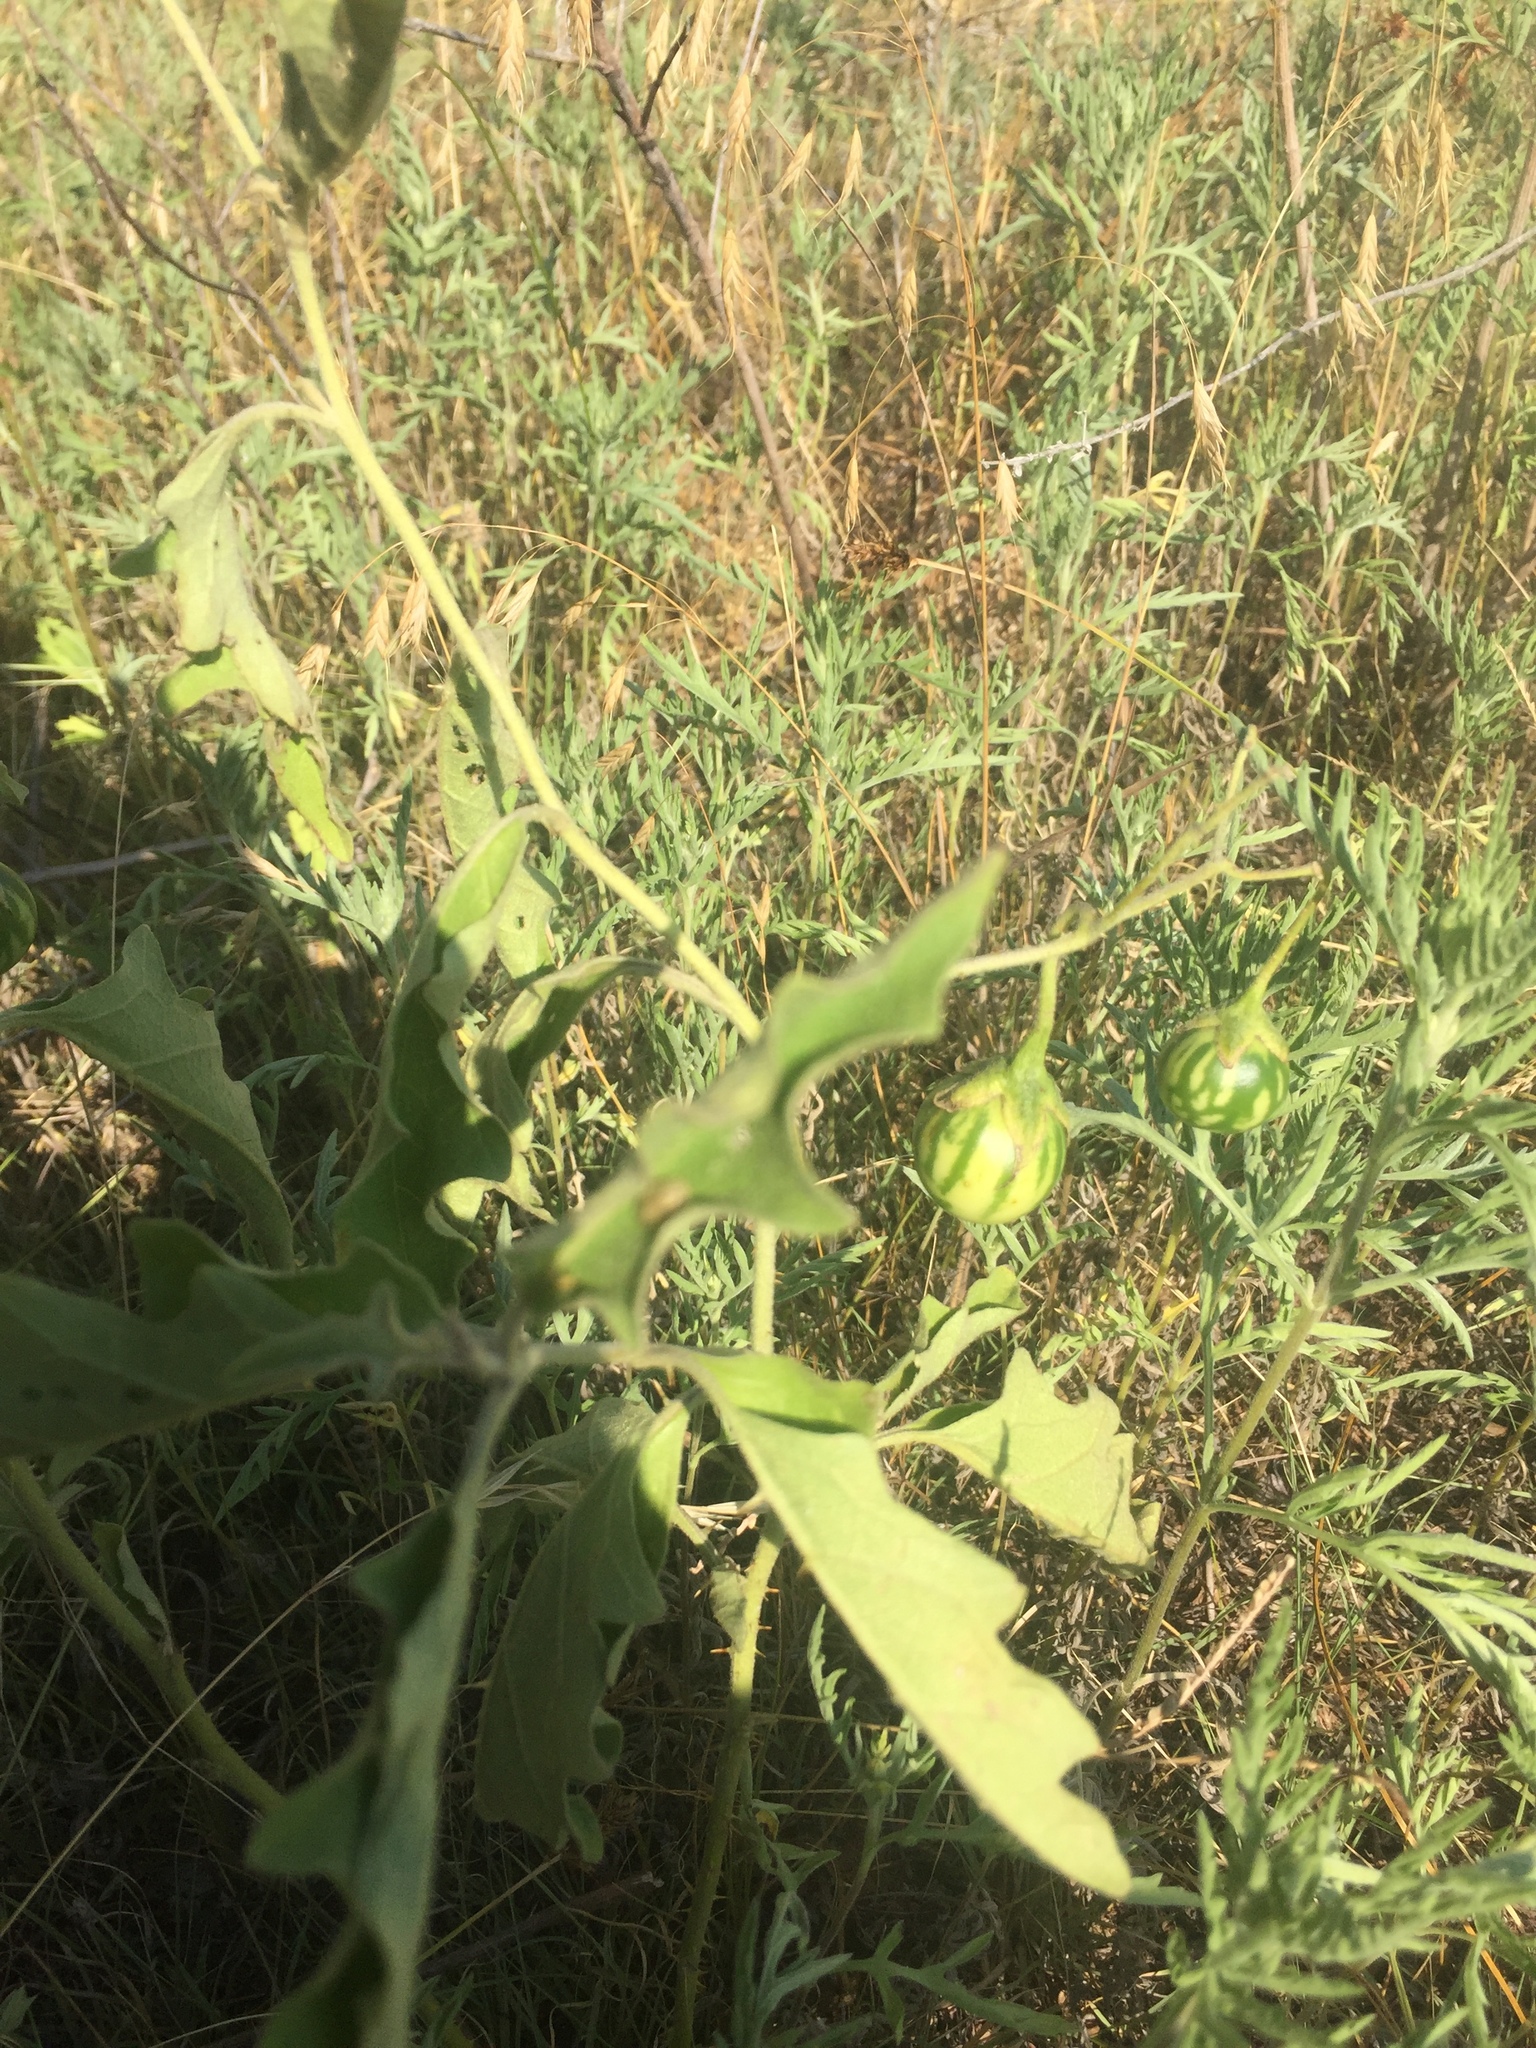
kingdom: Plantae
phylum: Tracheophyta
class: Magnoliopsida
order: Solanales
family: Solanaceae
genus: Solanum
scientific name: Solanum dimidiatum
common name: Carolina horse-nettle
